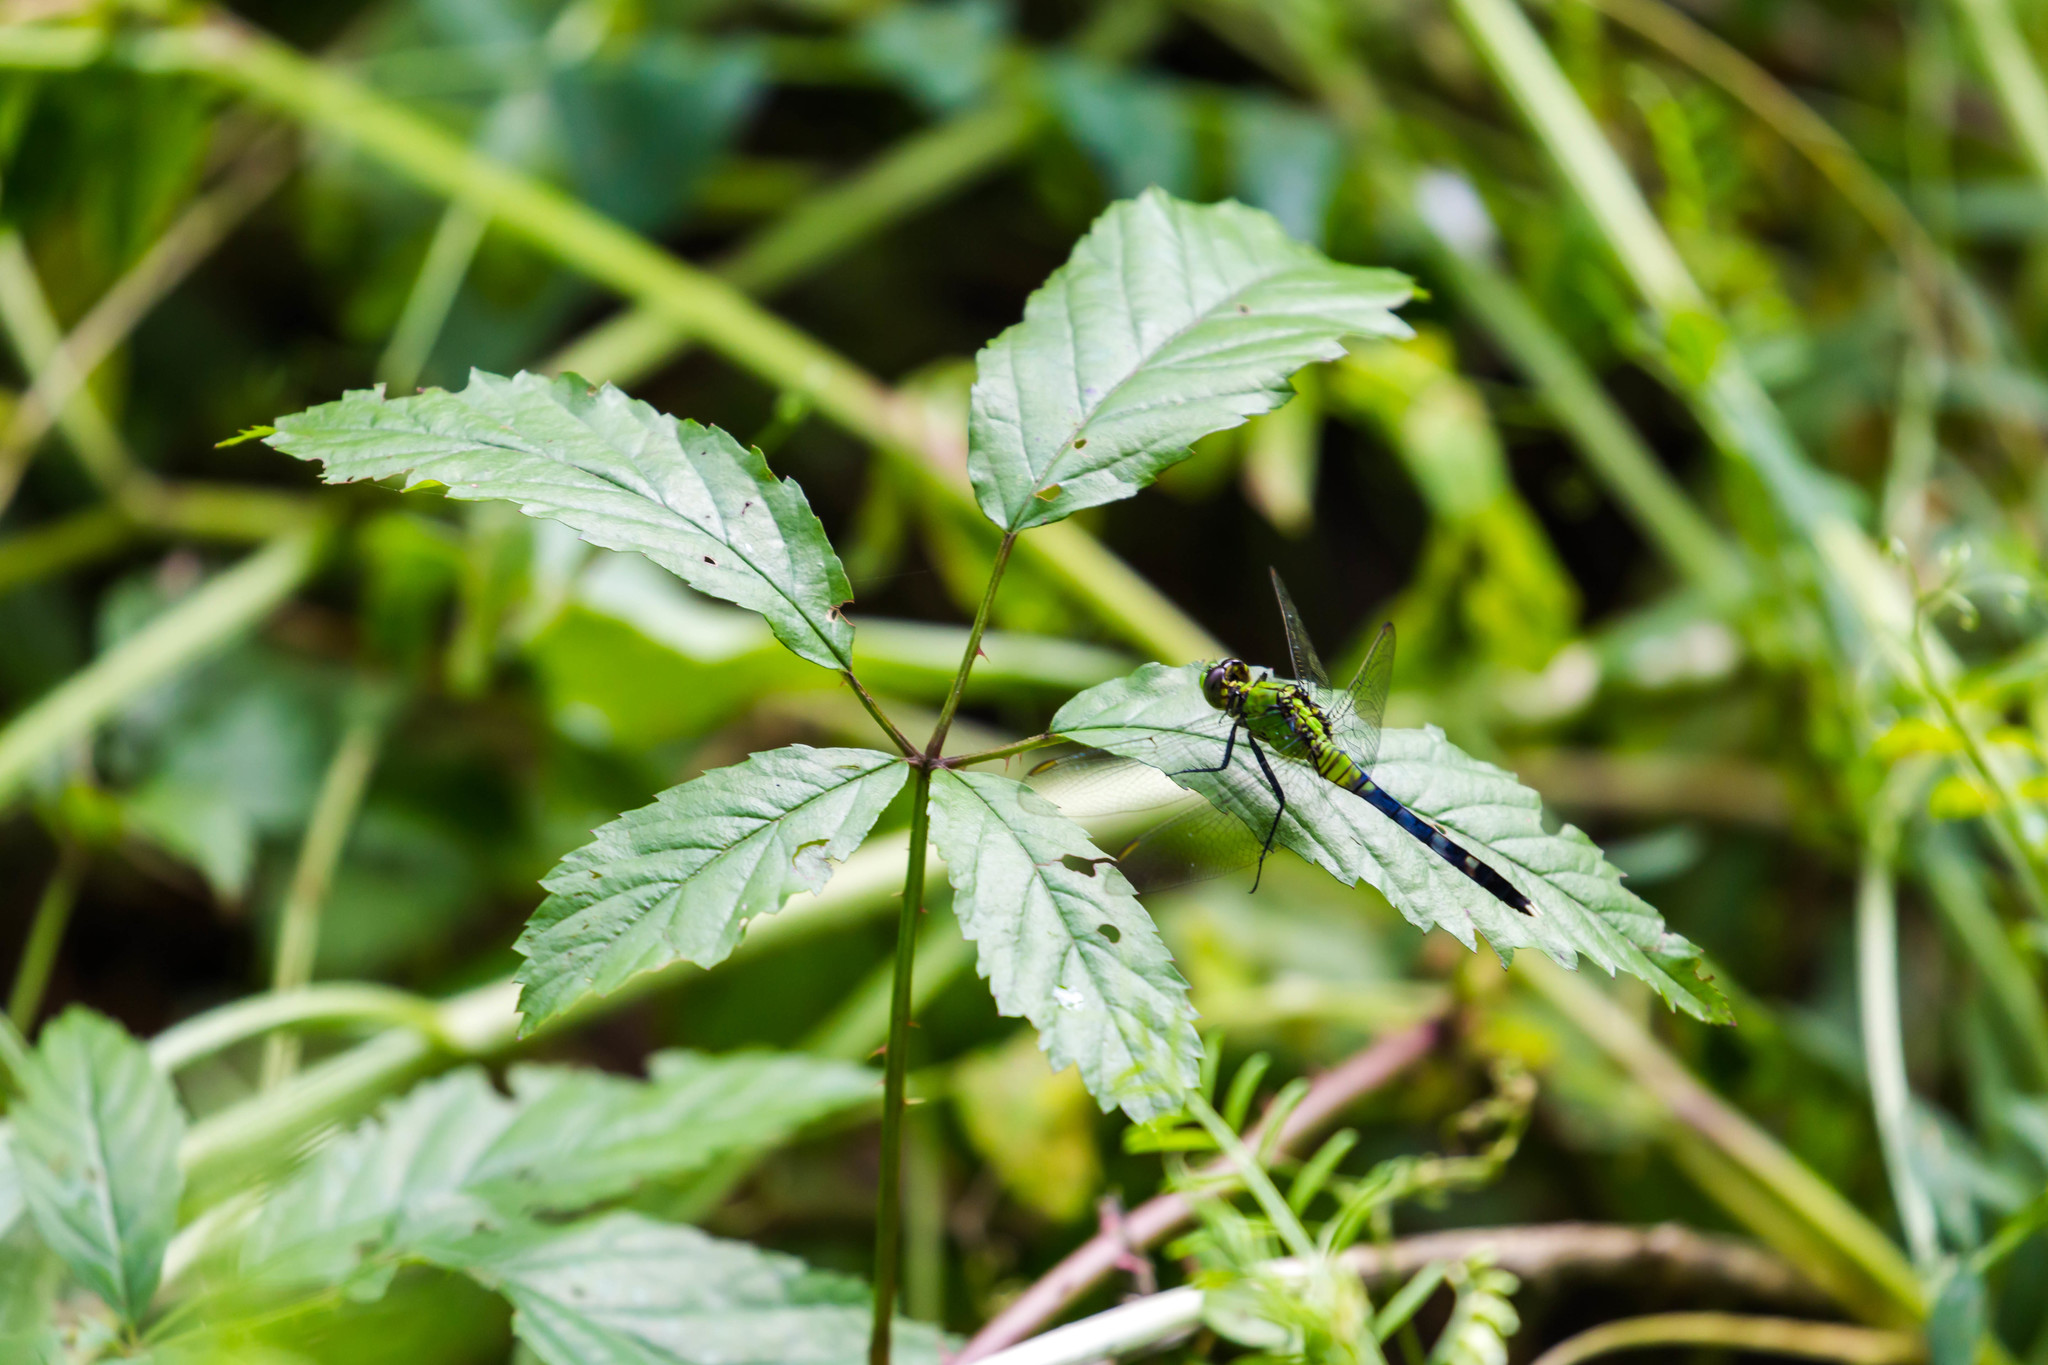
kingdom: Animalia
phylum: Arthropoda
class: Insecta
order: Odonata
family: Libellulidae
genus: Erythemis
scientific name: Erythemis simplicicollis
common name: Eastern pondhawk
